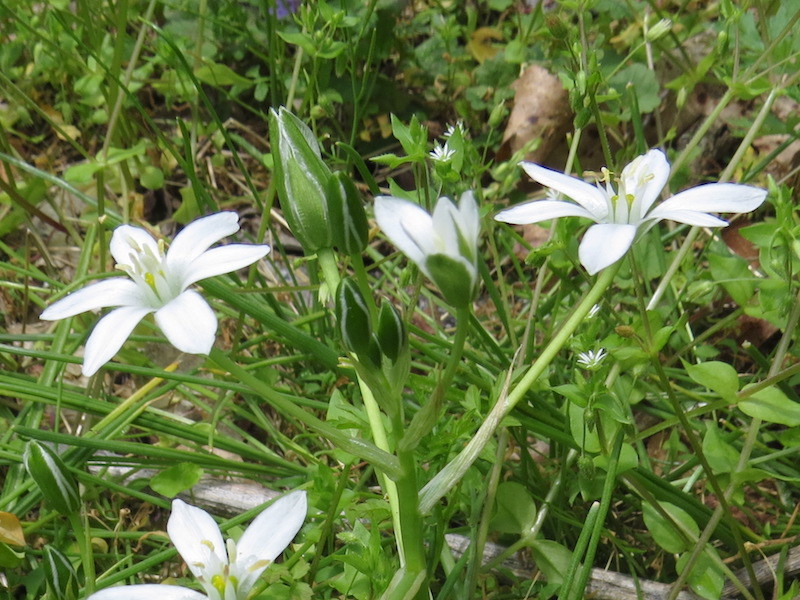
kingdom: Plantae
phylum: Tracheophyta
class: Liliopsida
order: Asparagales
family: Asparagaceae
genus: Ornithogalum
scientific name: Ornithogalum umbellatum
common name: Garden star-of-bethlehem
